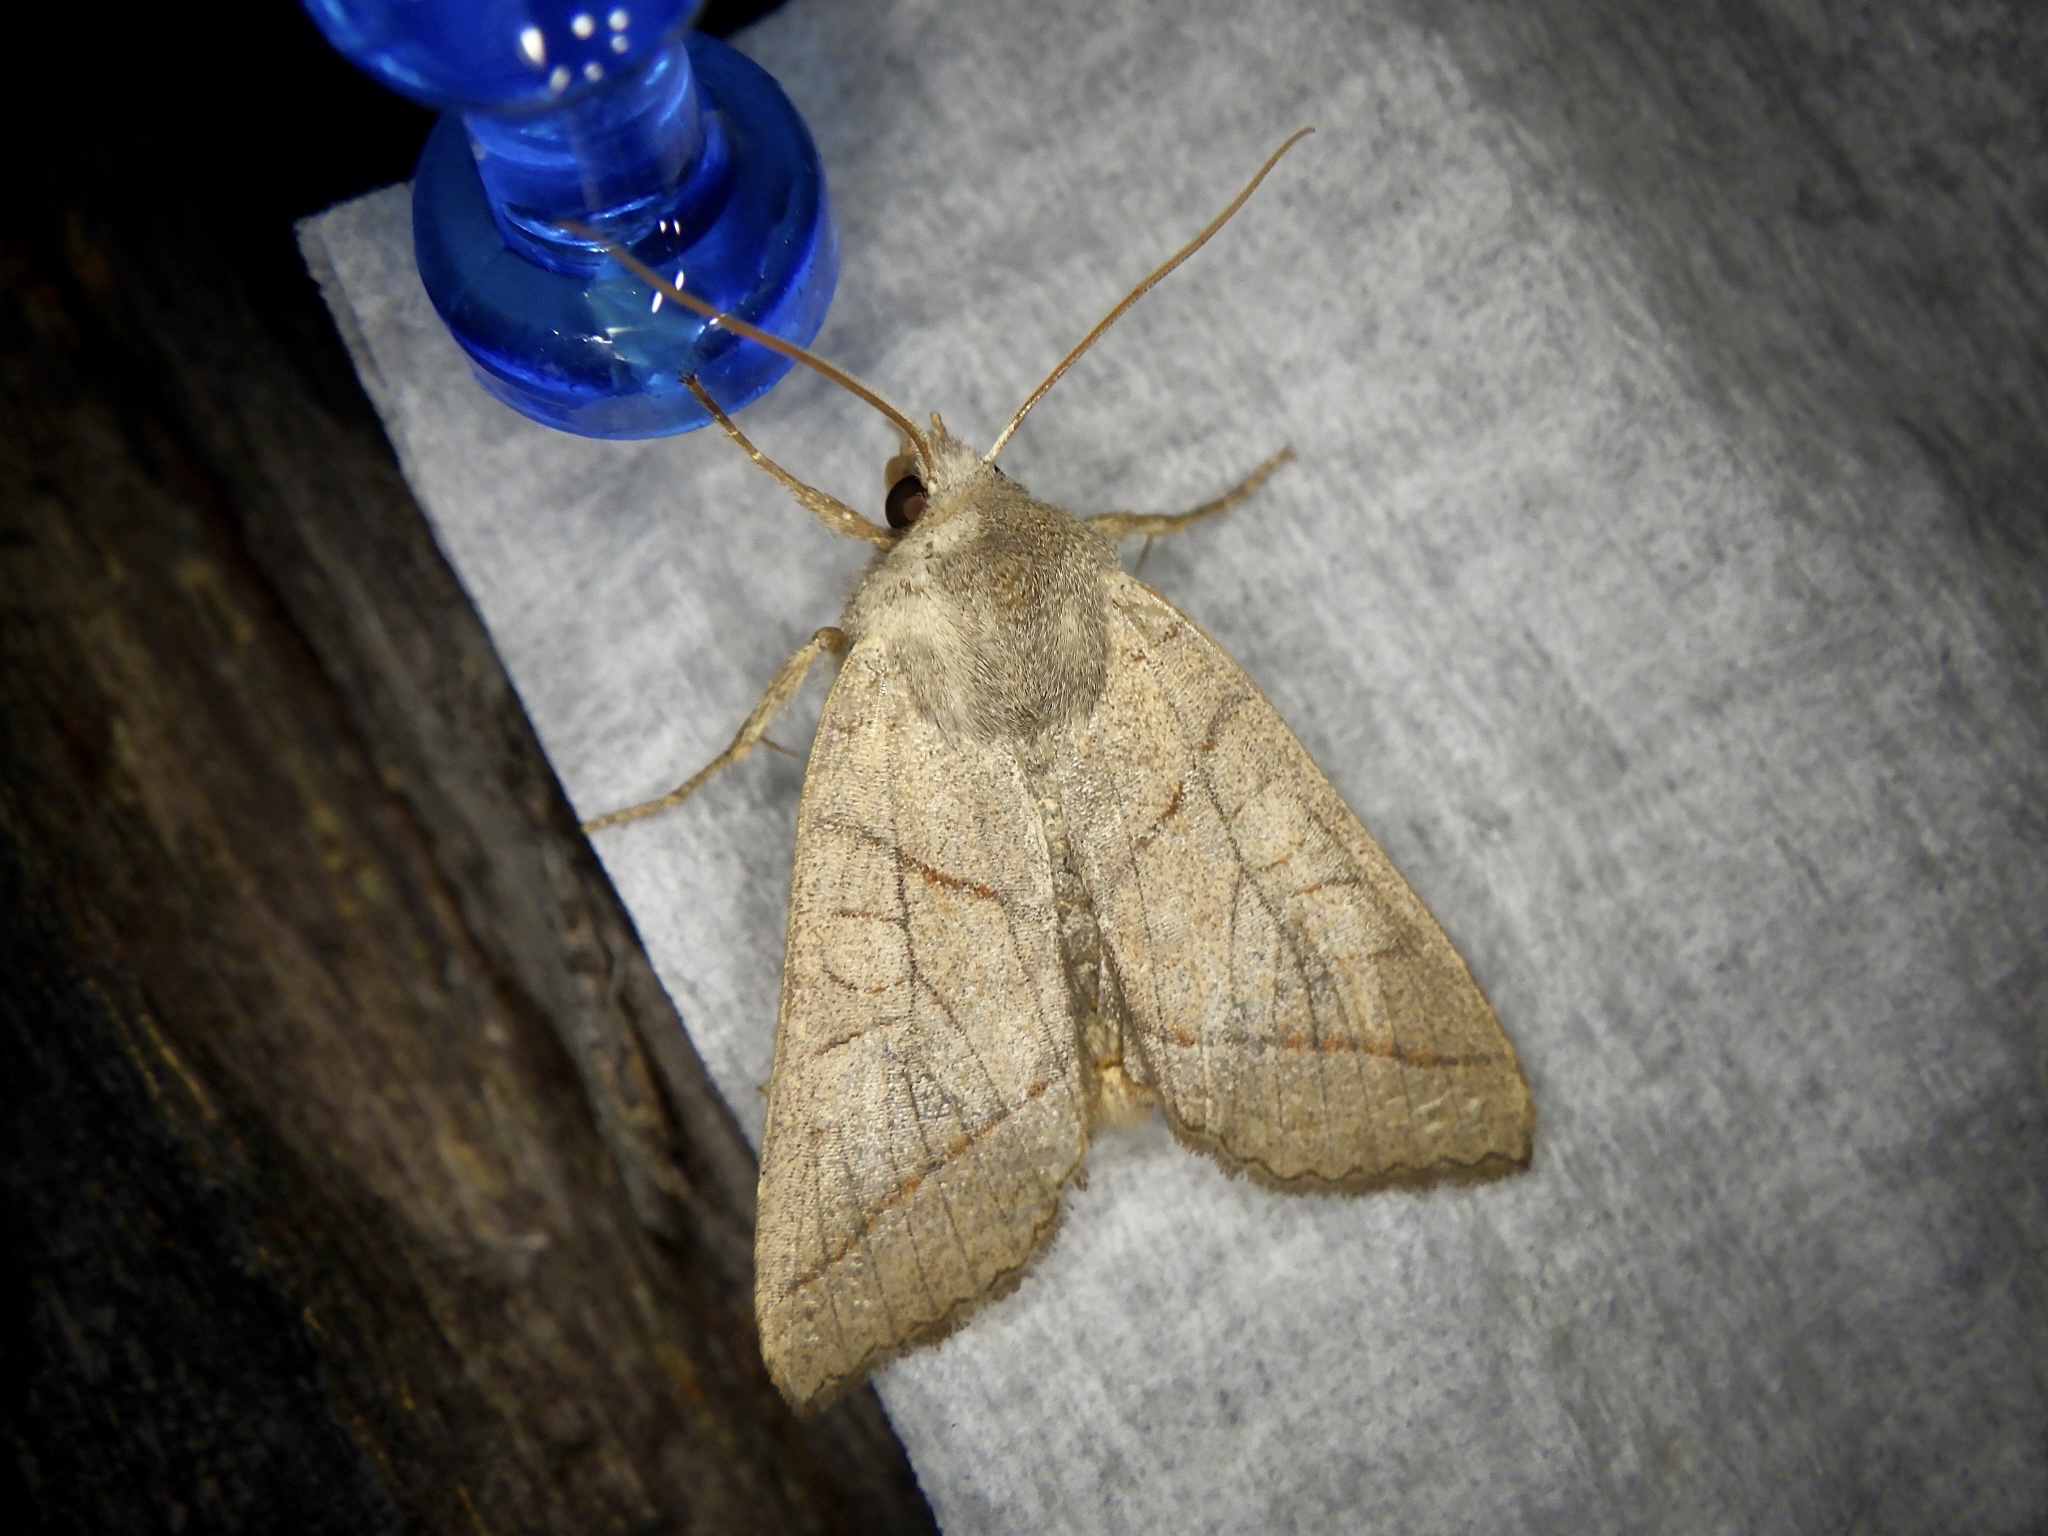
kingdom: Animalia
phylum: Arthropoda
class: Insecta
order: Lepidoptera
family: Noctuidae
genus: Telorta
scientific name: Telorta divergens
